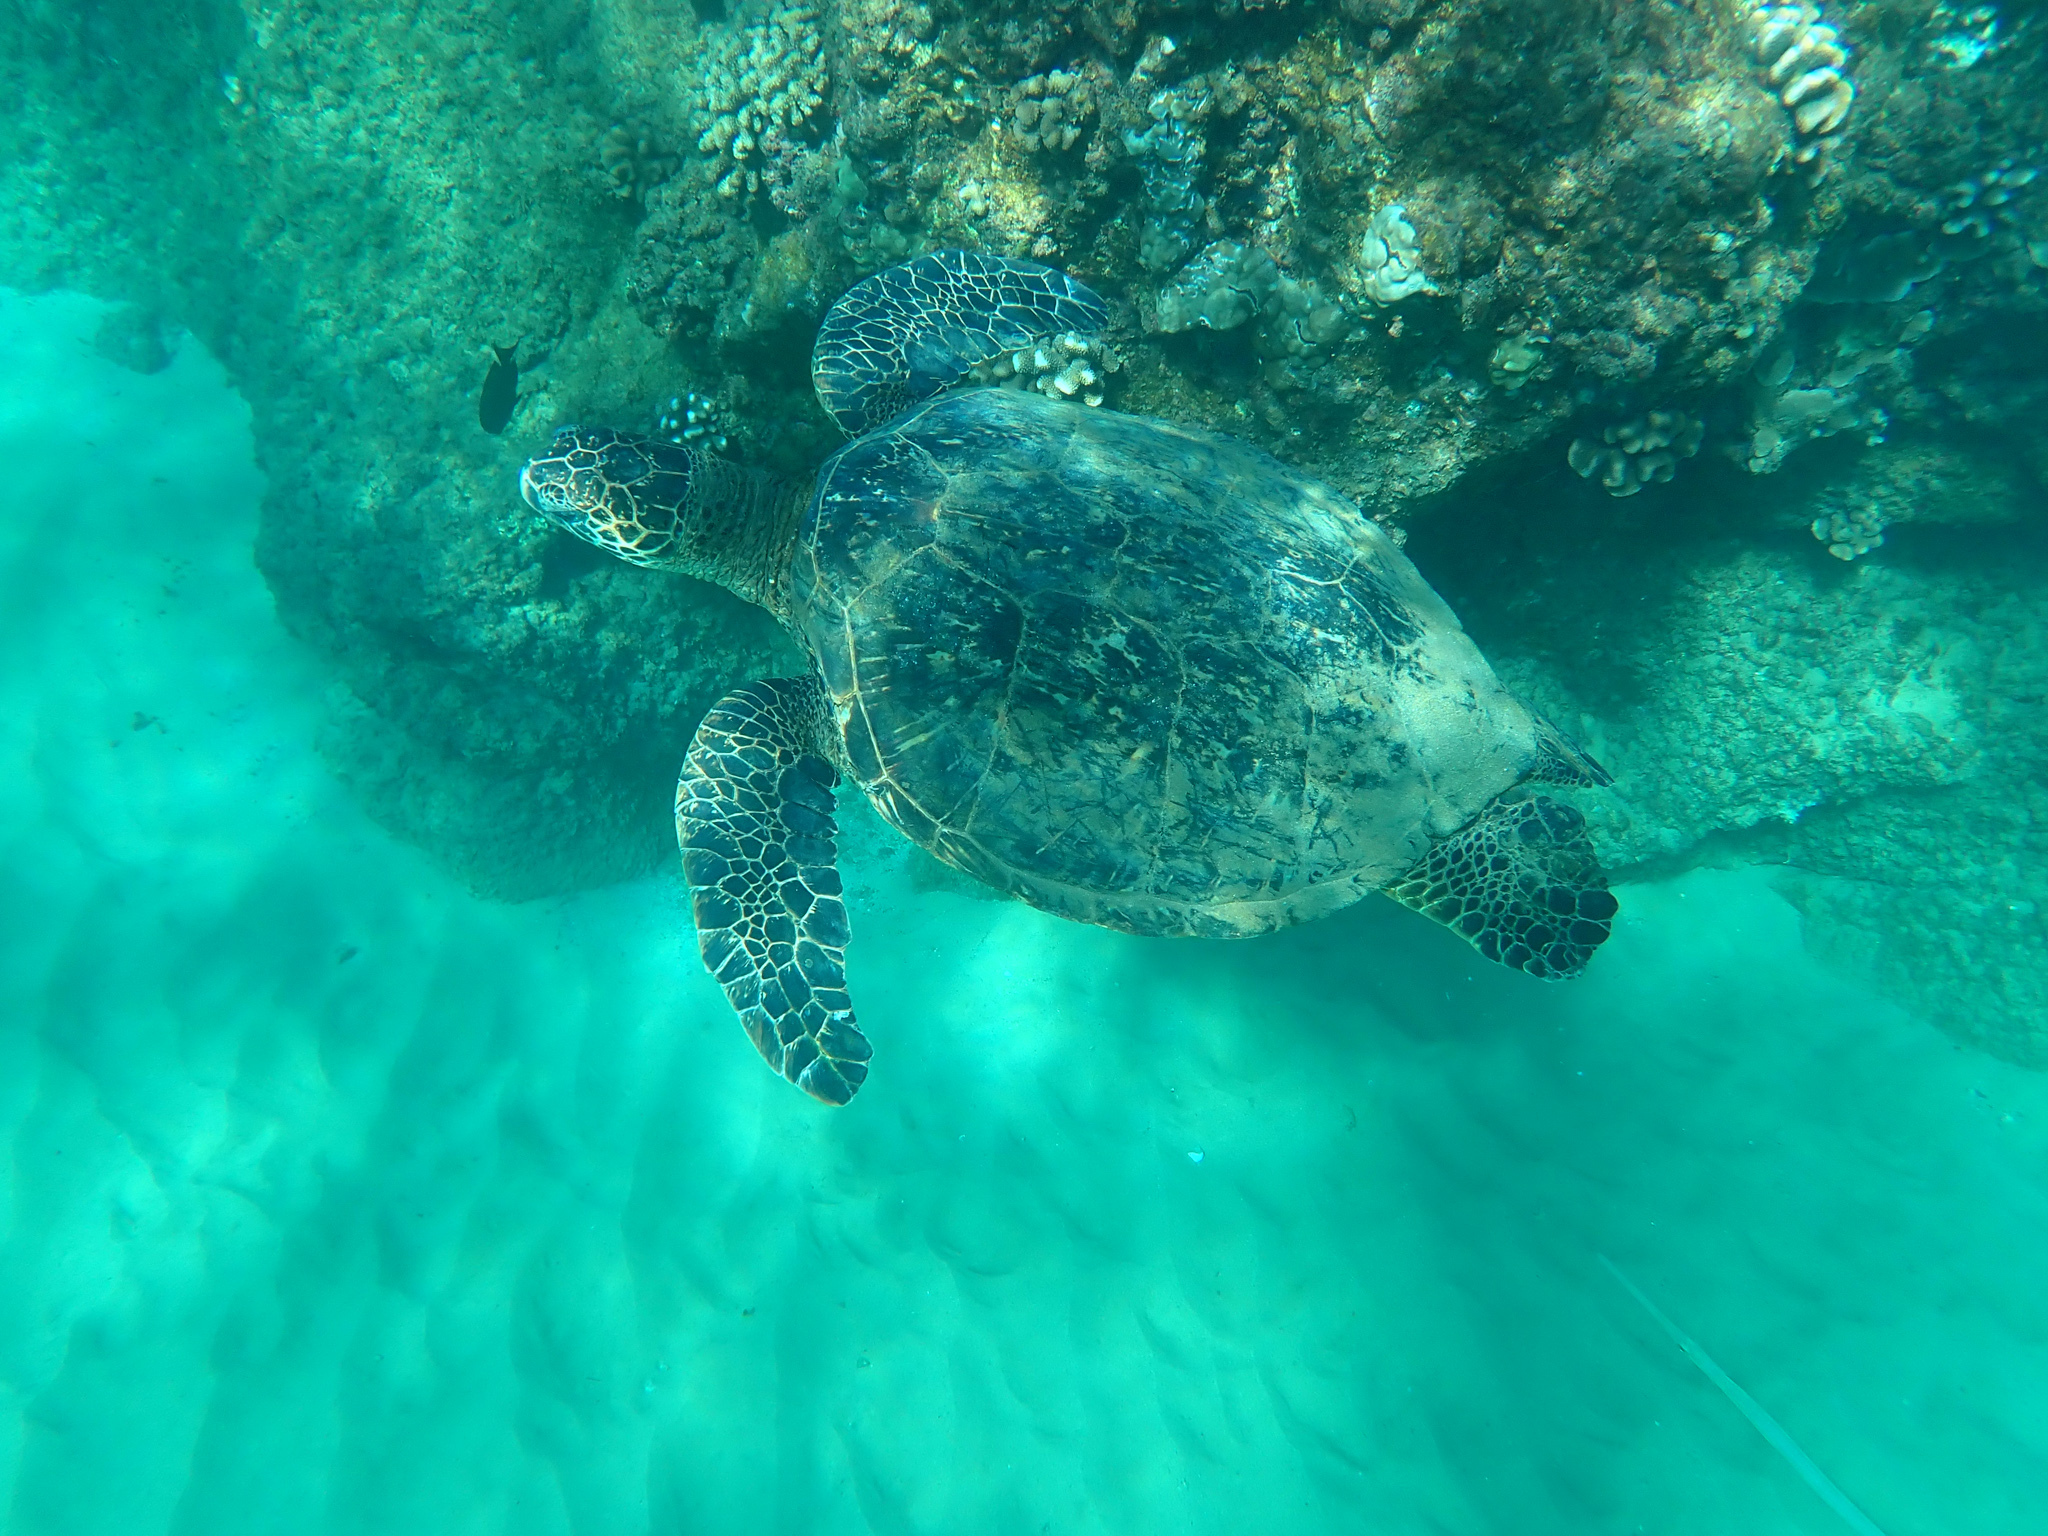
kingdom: Animalia
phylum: Chordata
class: Testudines
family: Cheloniidae
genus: Chelonia
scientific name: Chelonia mydas
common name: Green turtle
